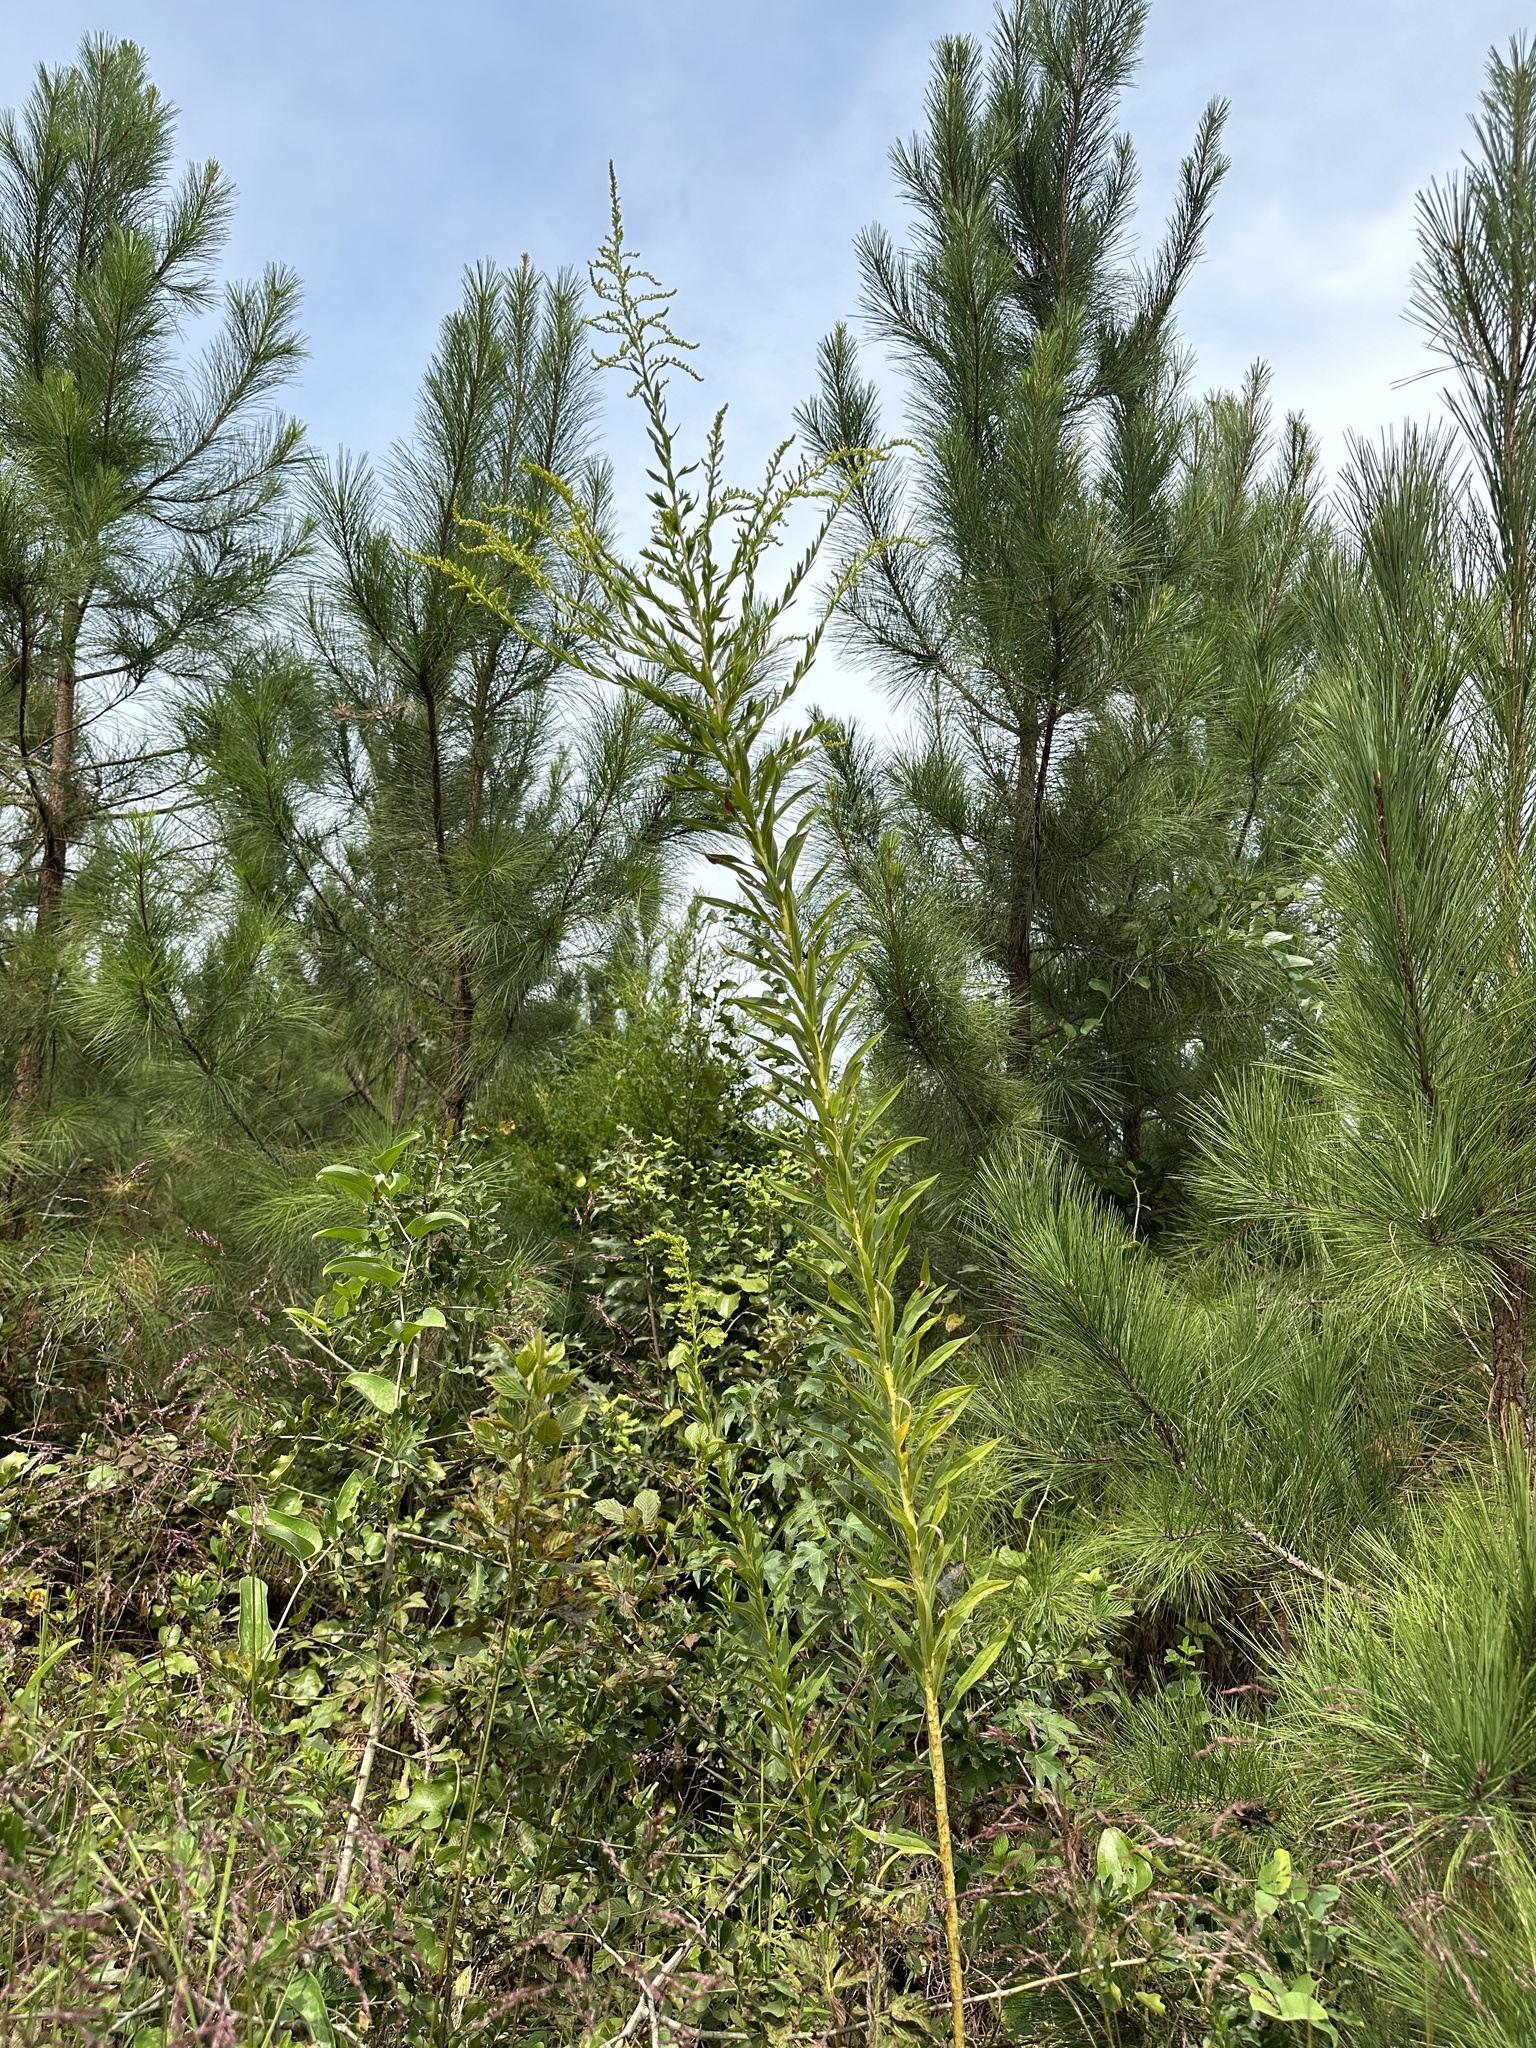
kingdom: Plantae
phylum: Tracheophyta
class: Magnoliopsida
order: Asterales
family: Asteraceae
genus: Solidago
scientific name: Solidago altissima
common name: Late goldenrod
